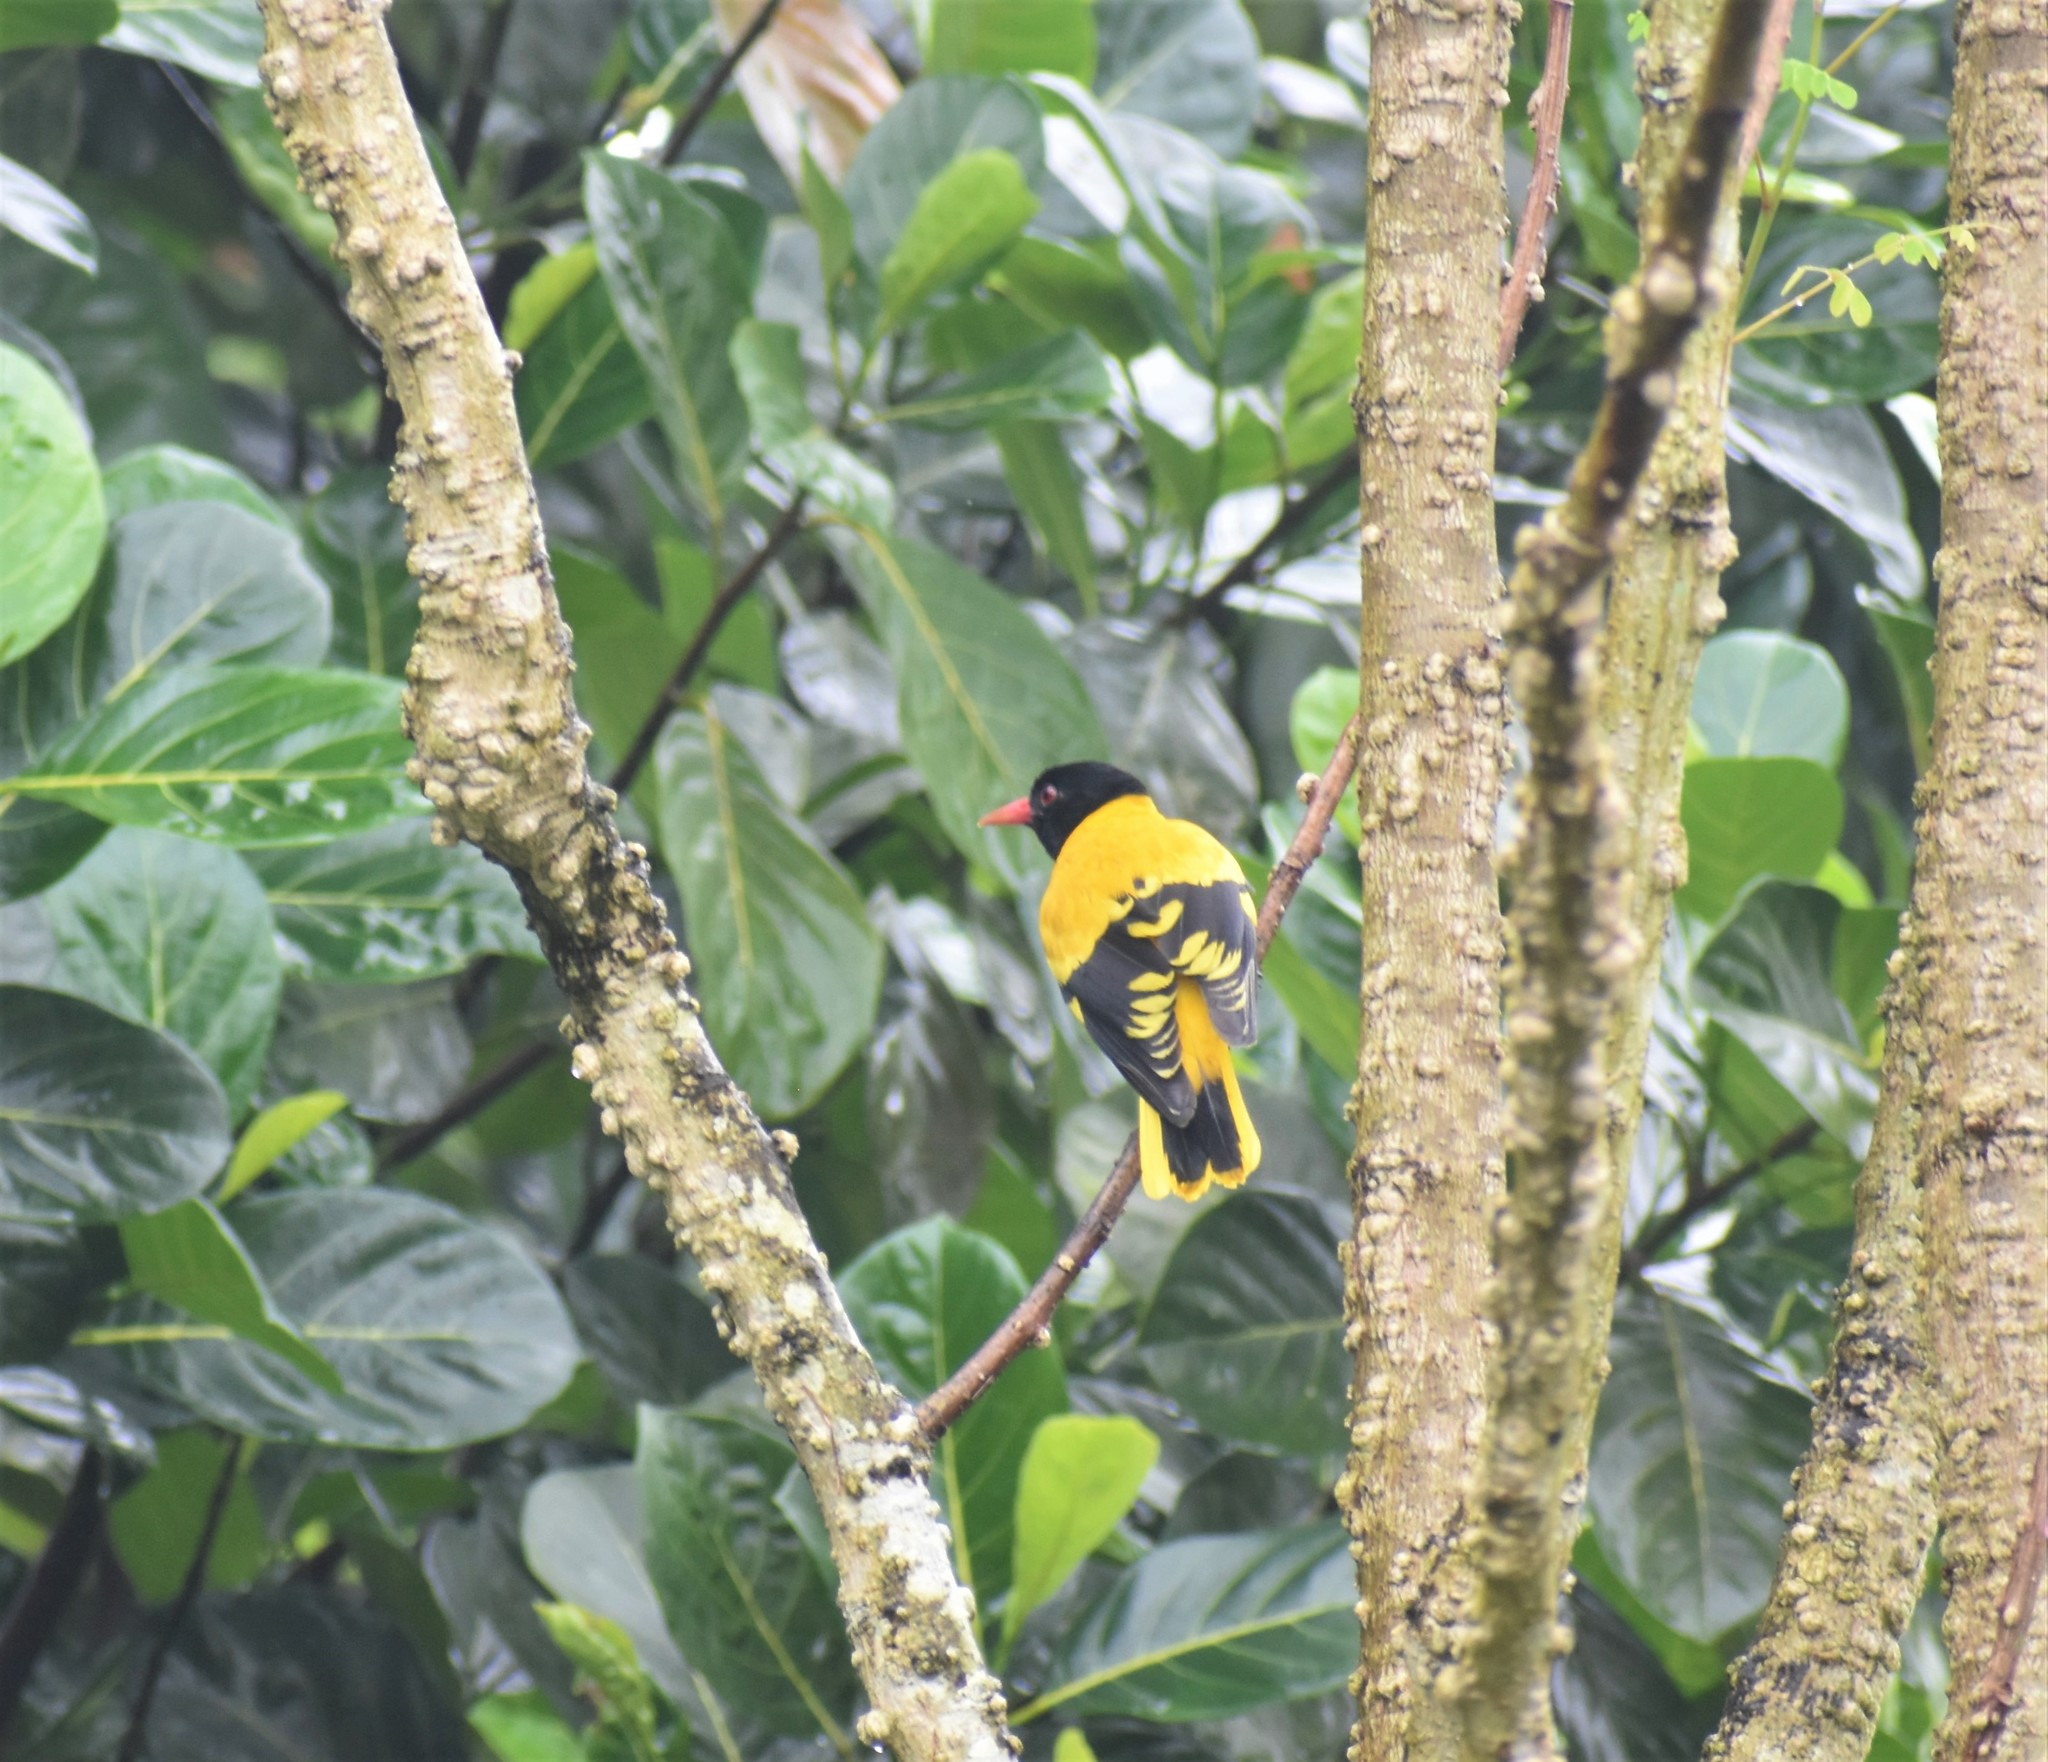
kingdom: Animalia
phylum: Chordata
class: Aves
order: Passeriformes
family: Oriolidae
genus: Oriolus
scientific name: Oriolus xanthornus
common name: Black-hooded oriole
